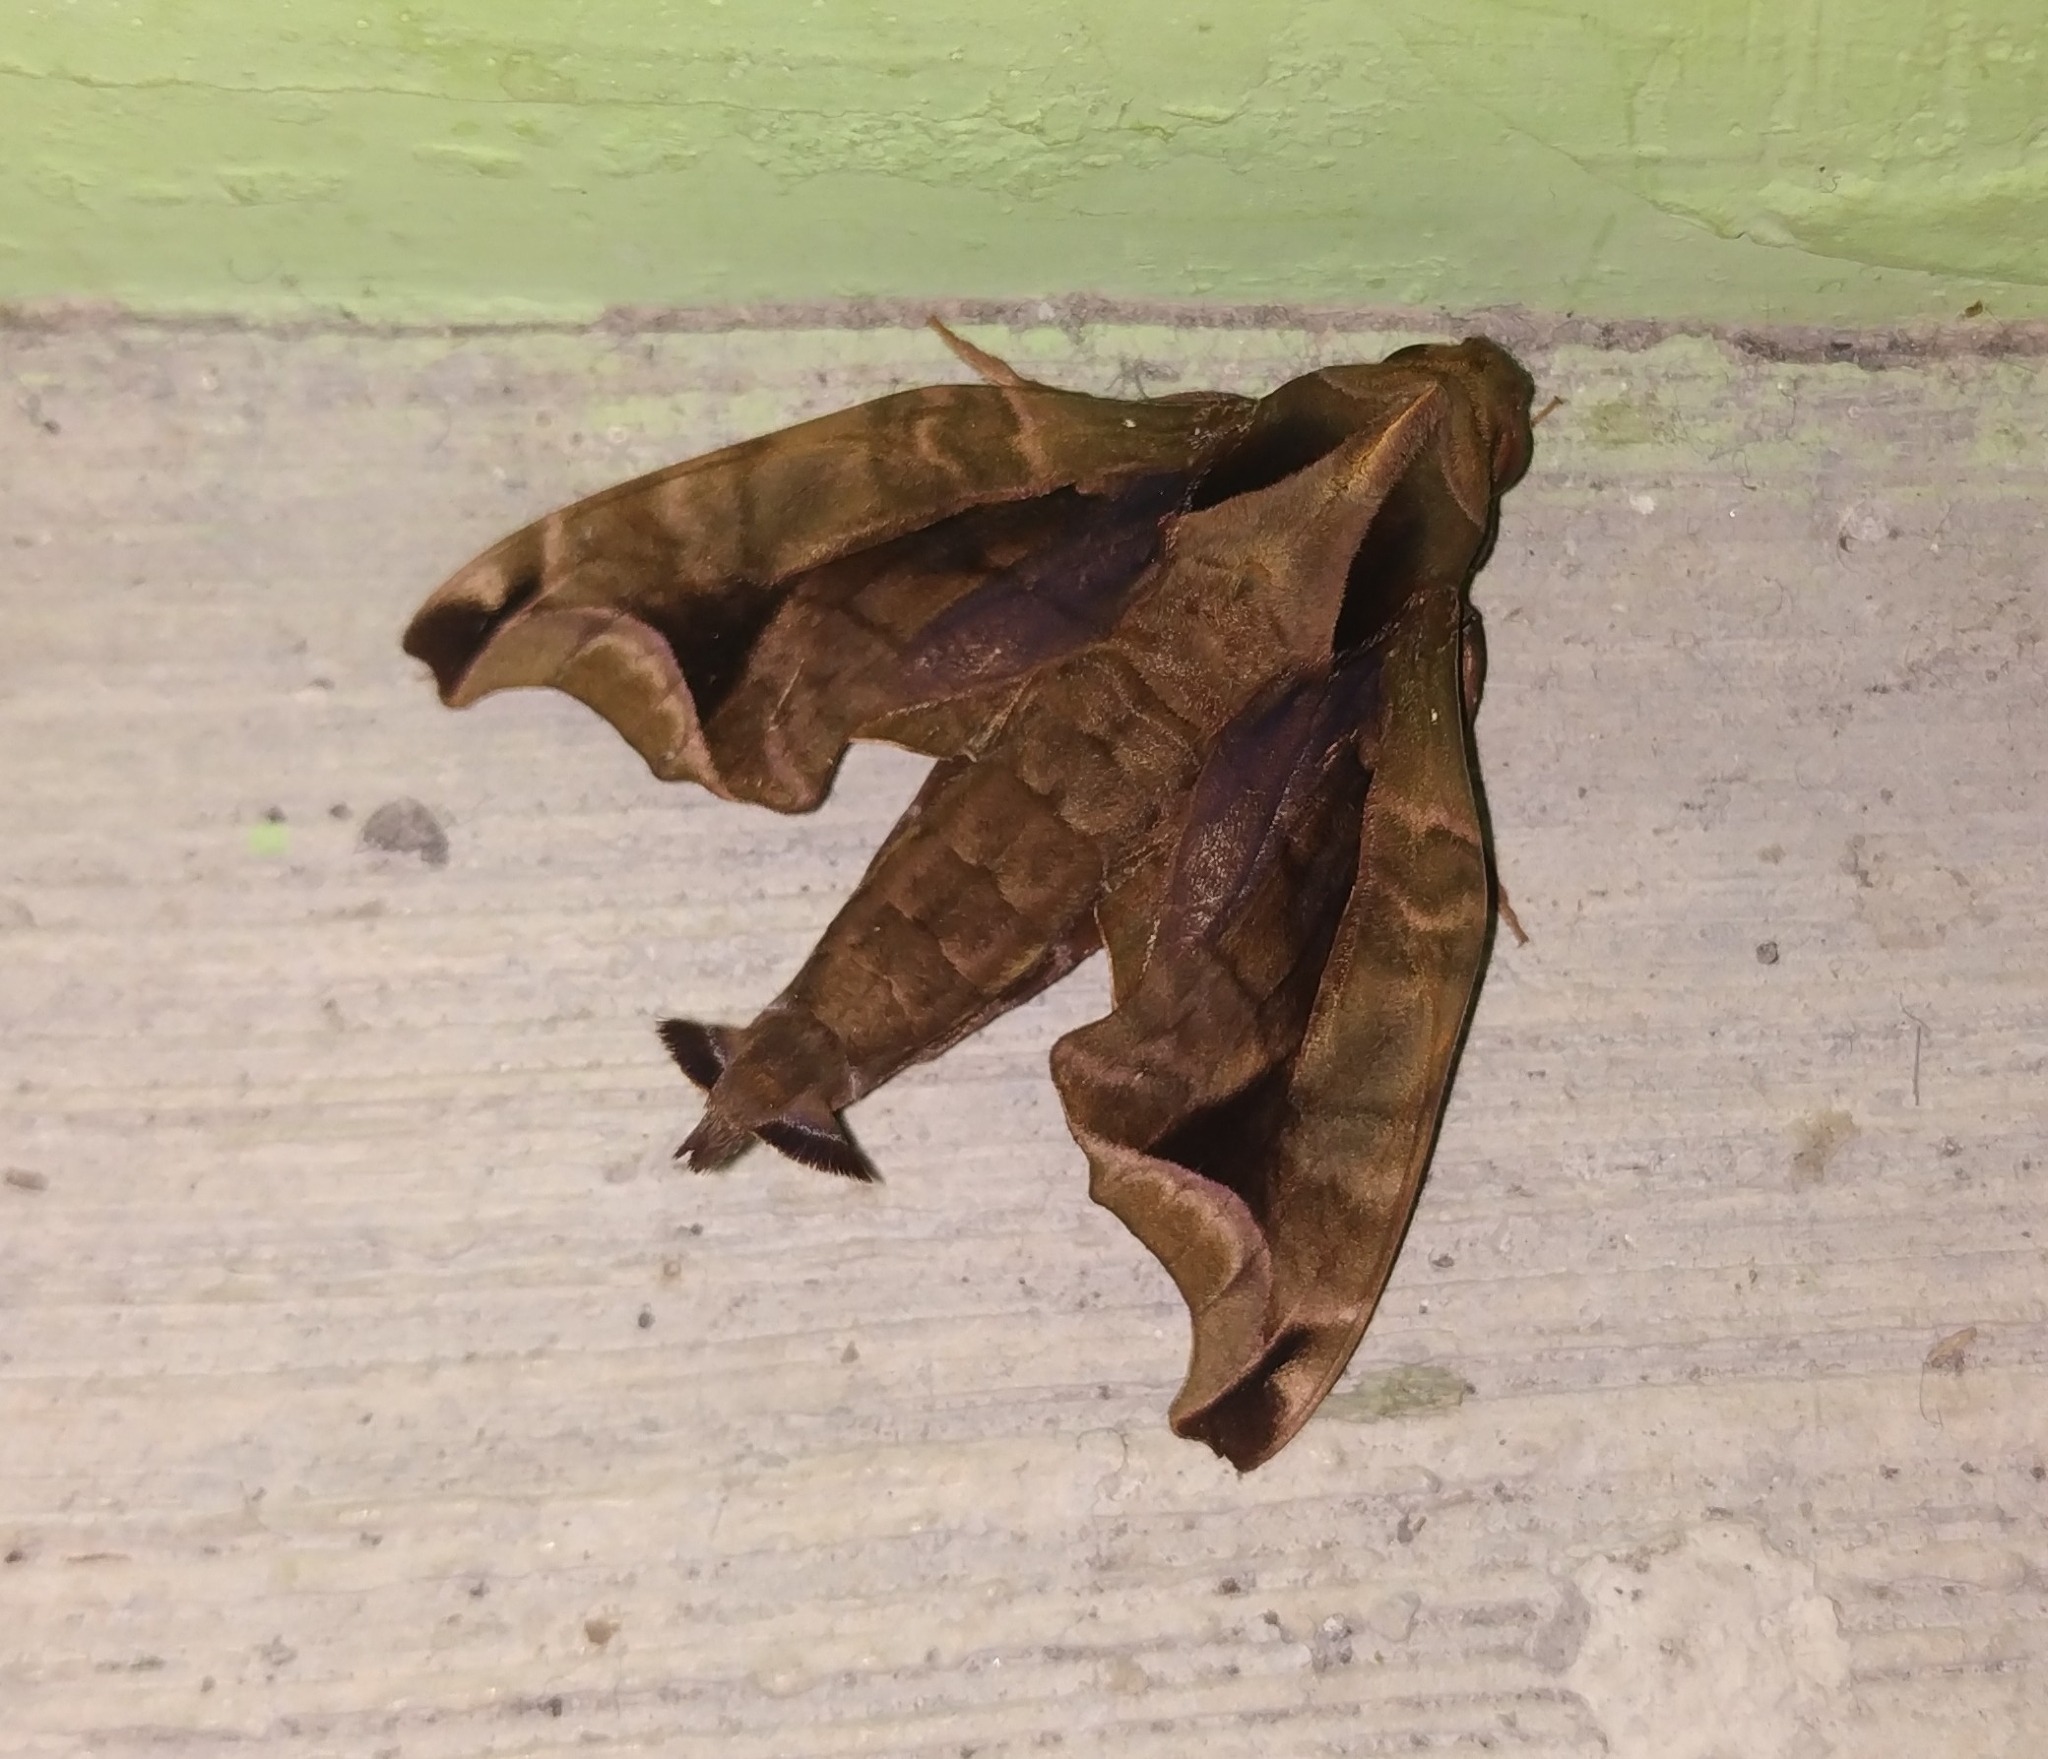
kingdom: Animalia
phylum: Arthropoda
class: Insecta
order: Lepidoptera
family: Sphingidae
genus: Enyo
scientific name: Enyo gorgon
